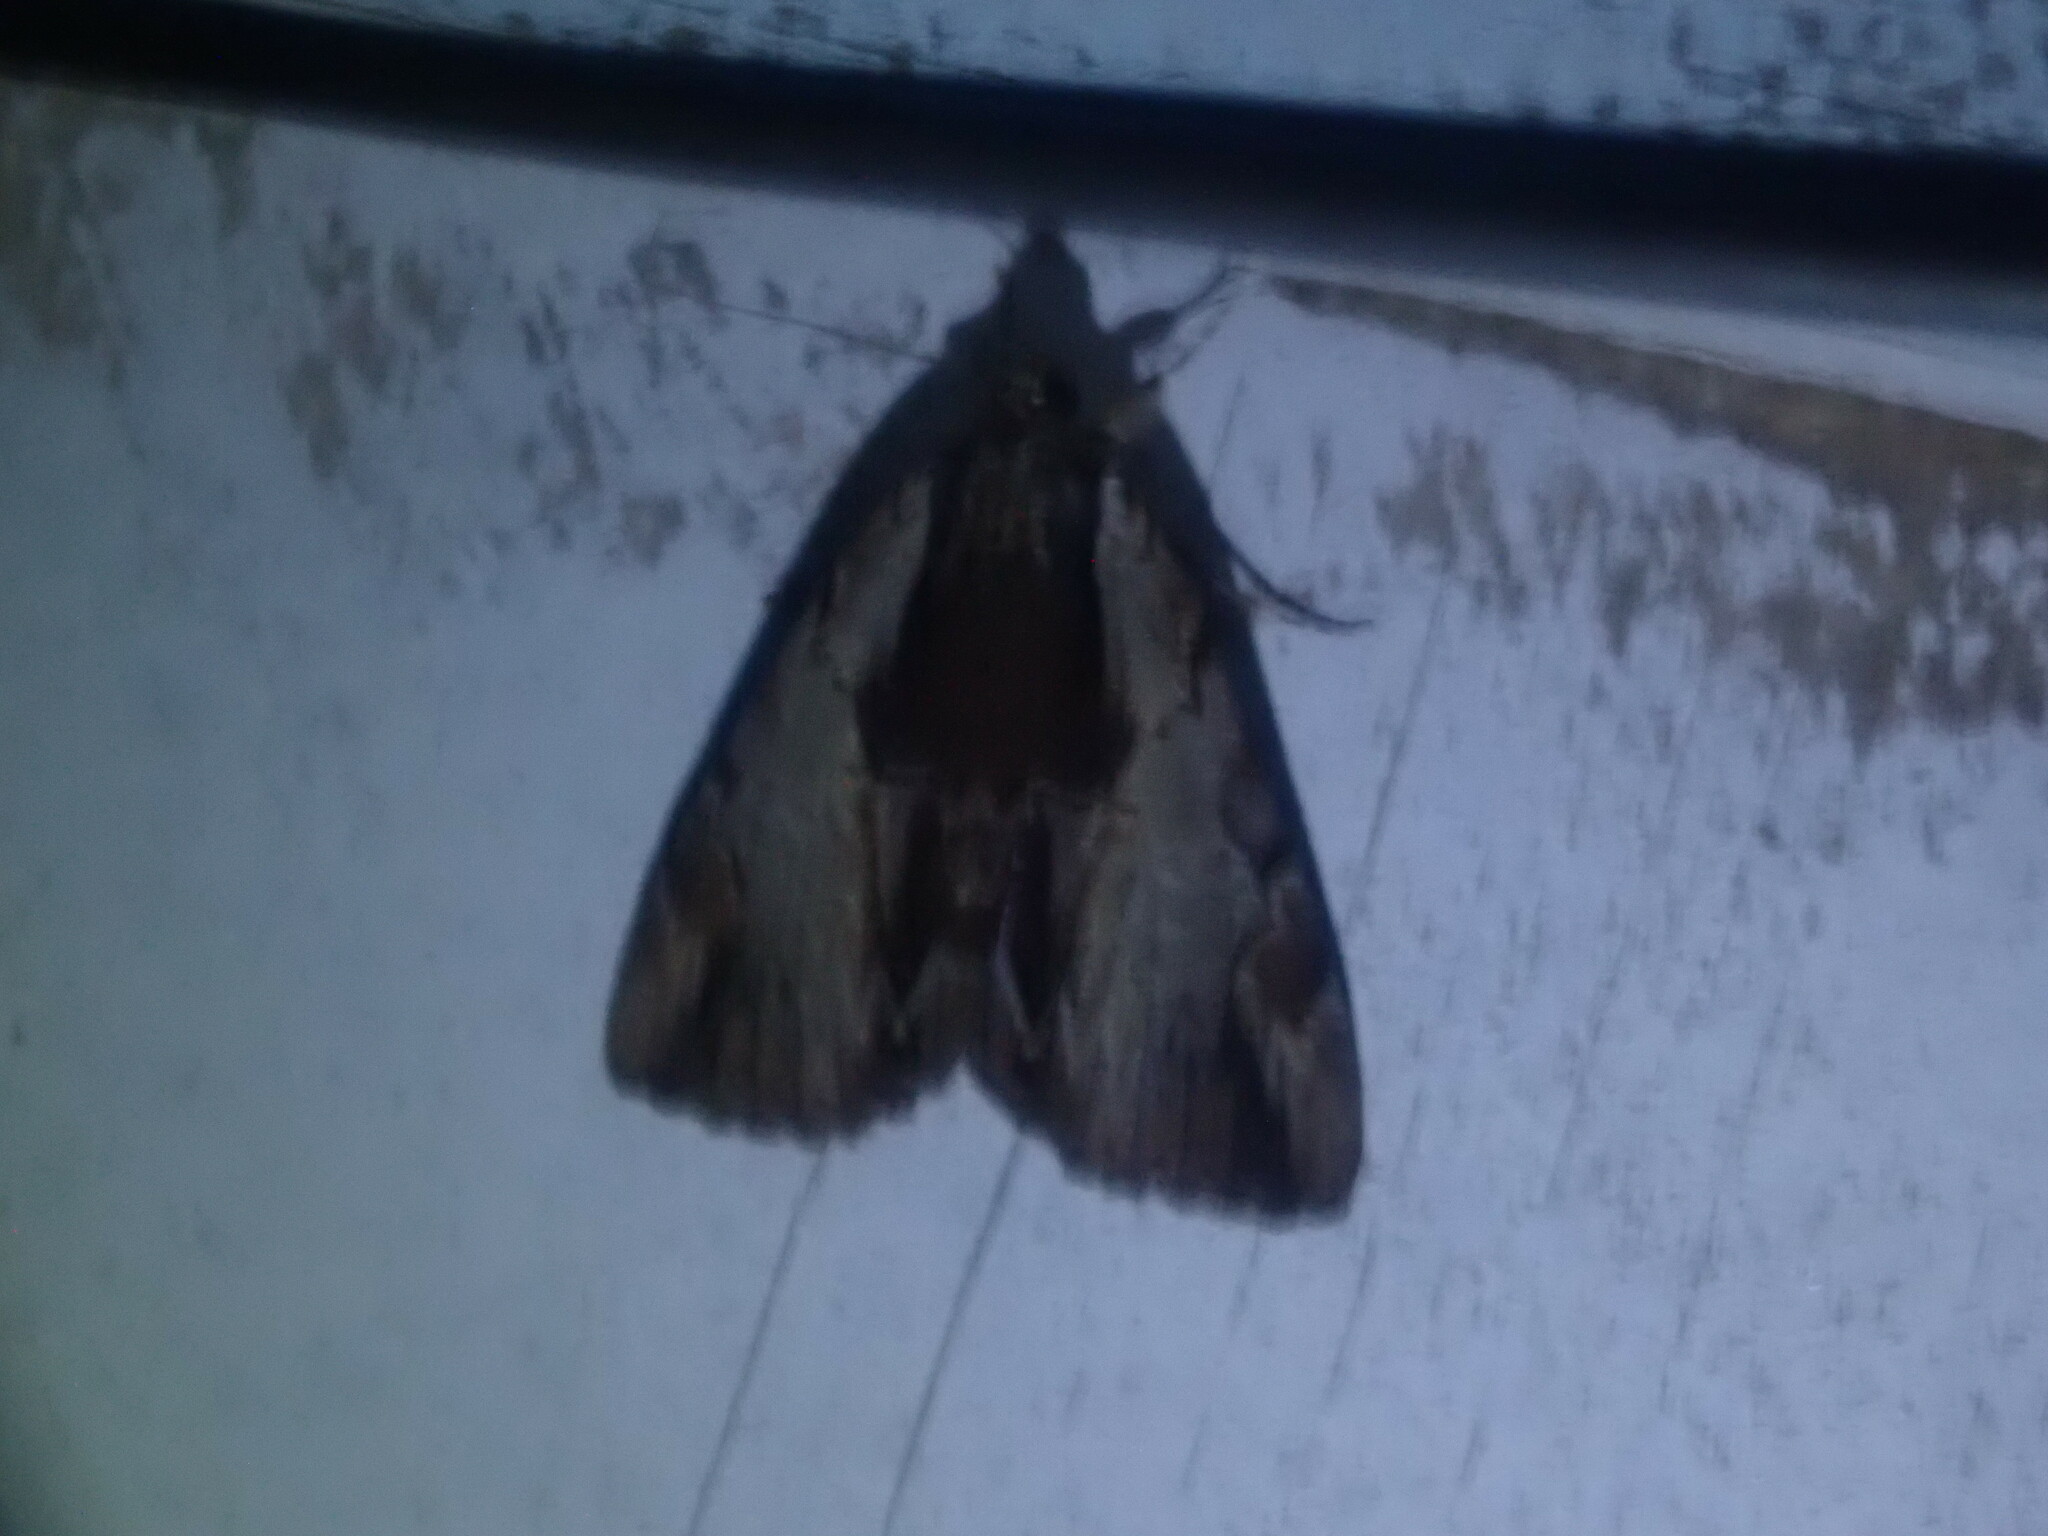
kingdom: Animalia
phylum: Arthropoda
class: Insecta
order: Lepidoptera
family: Erebidae
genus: Catocala
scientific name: Catocala ultronia
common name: Ultronia underwing
